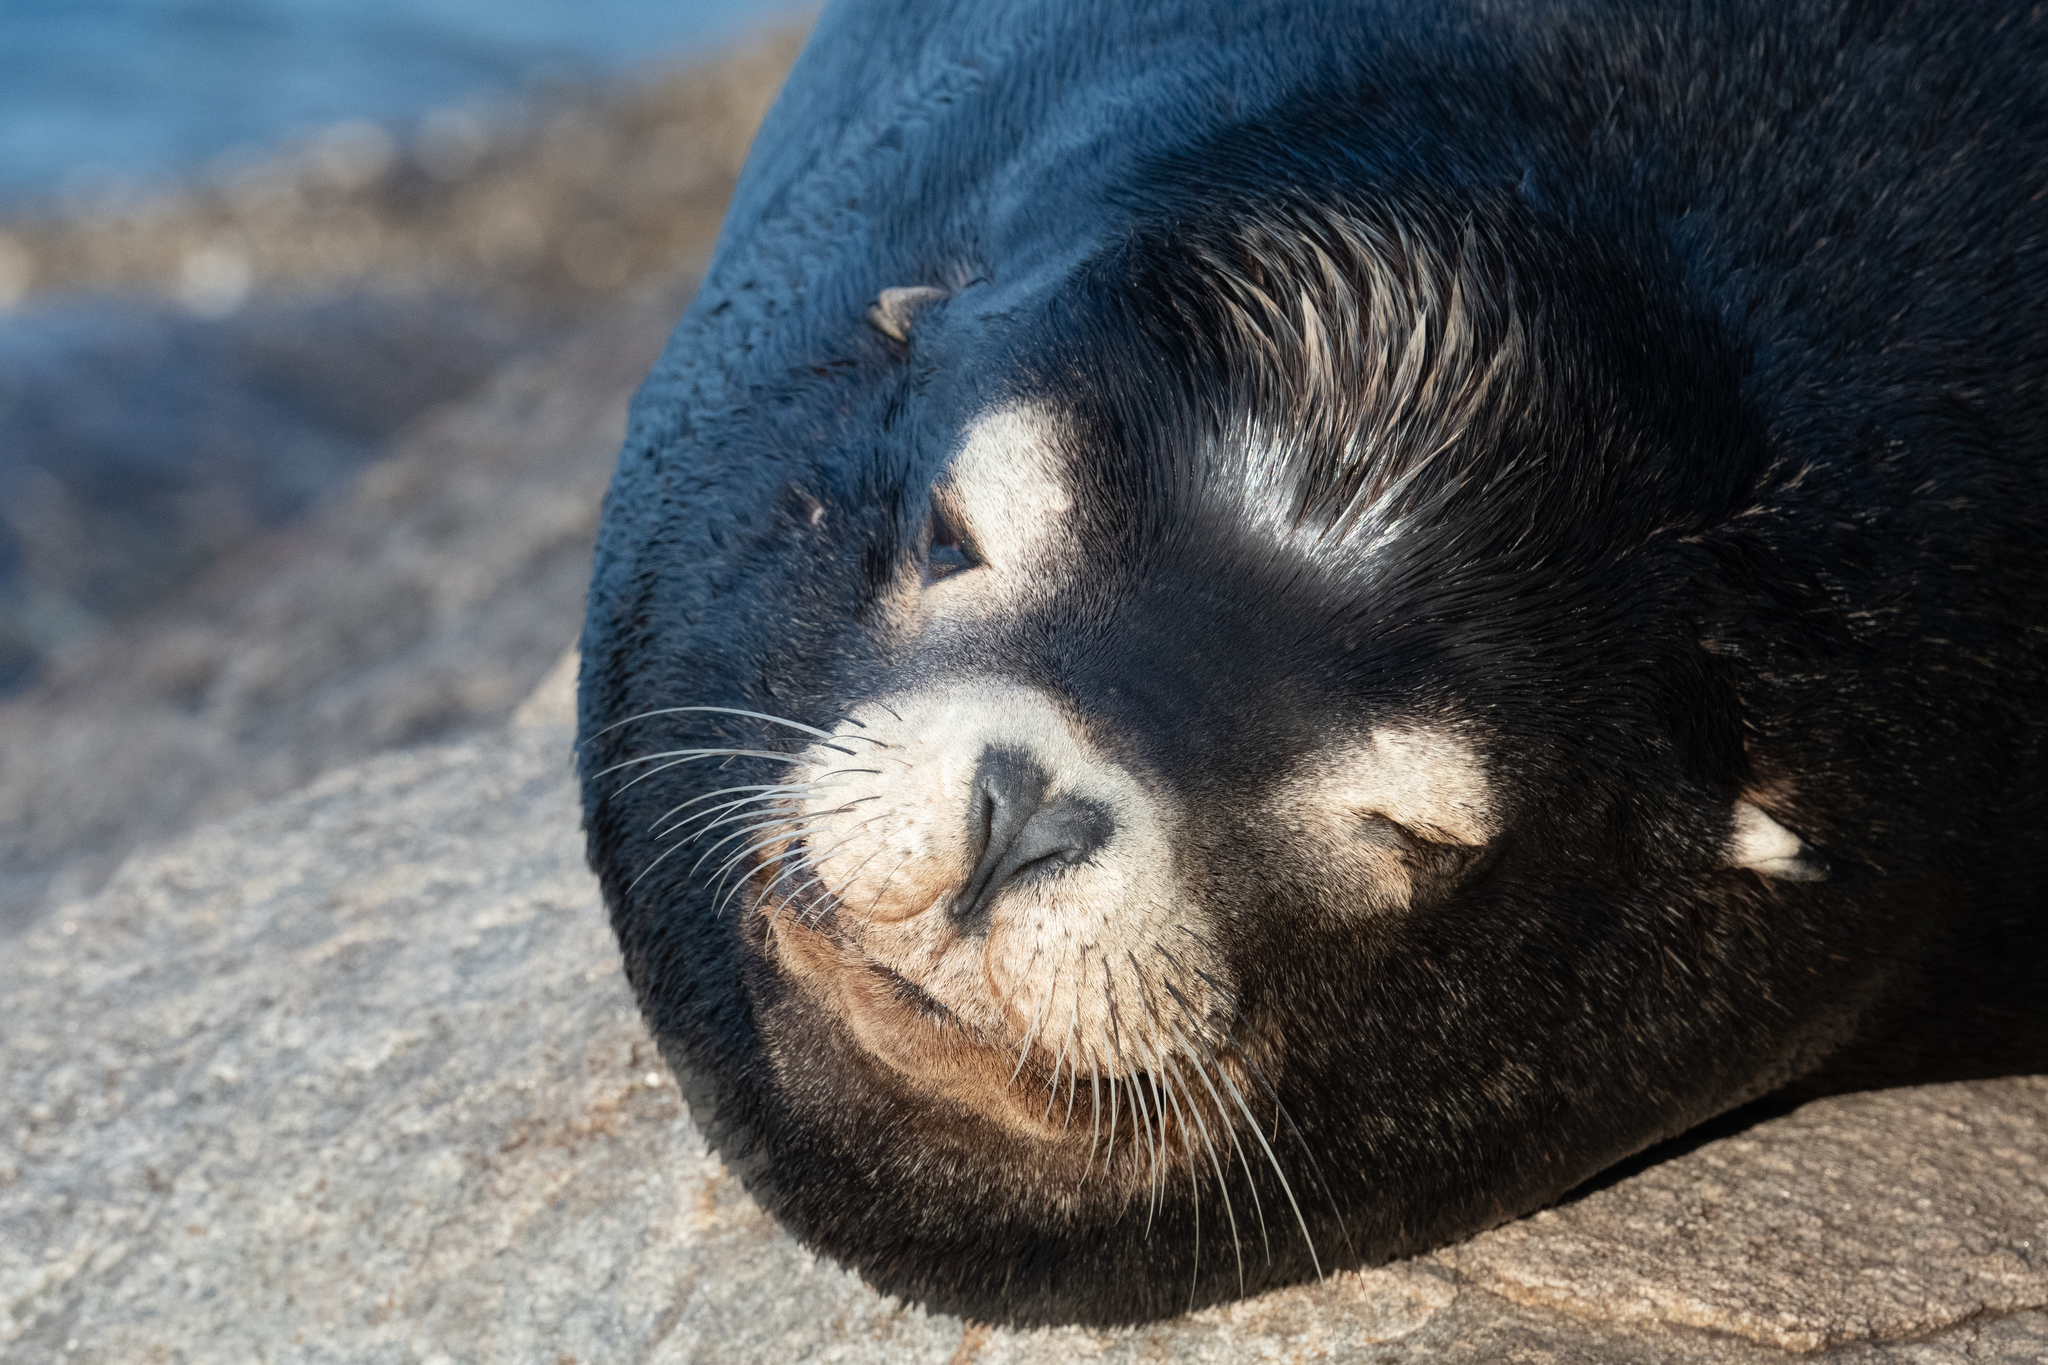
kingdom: Animalia
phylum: Chordata
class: Mammalia
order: Carnivora
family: Otariidae
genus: Zalophus
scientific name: Zalophus californianus
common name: California sea lion
